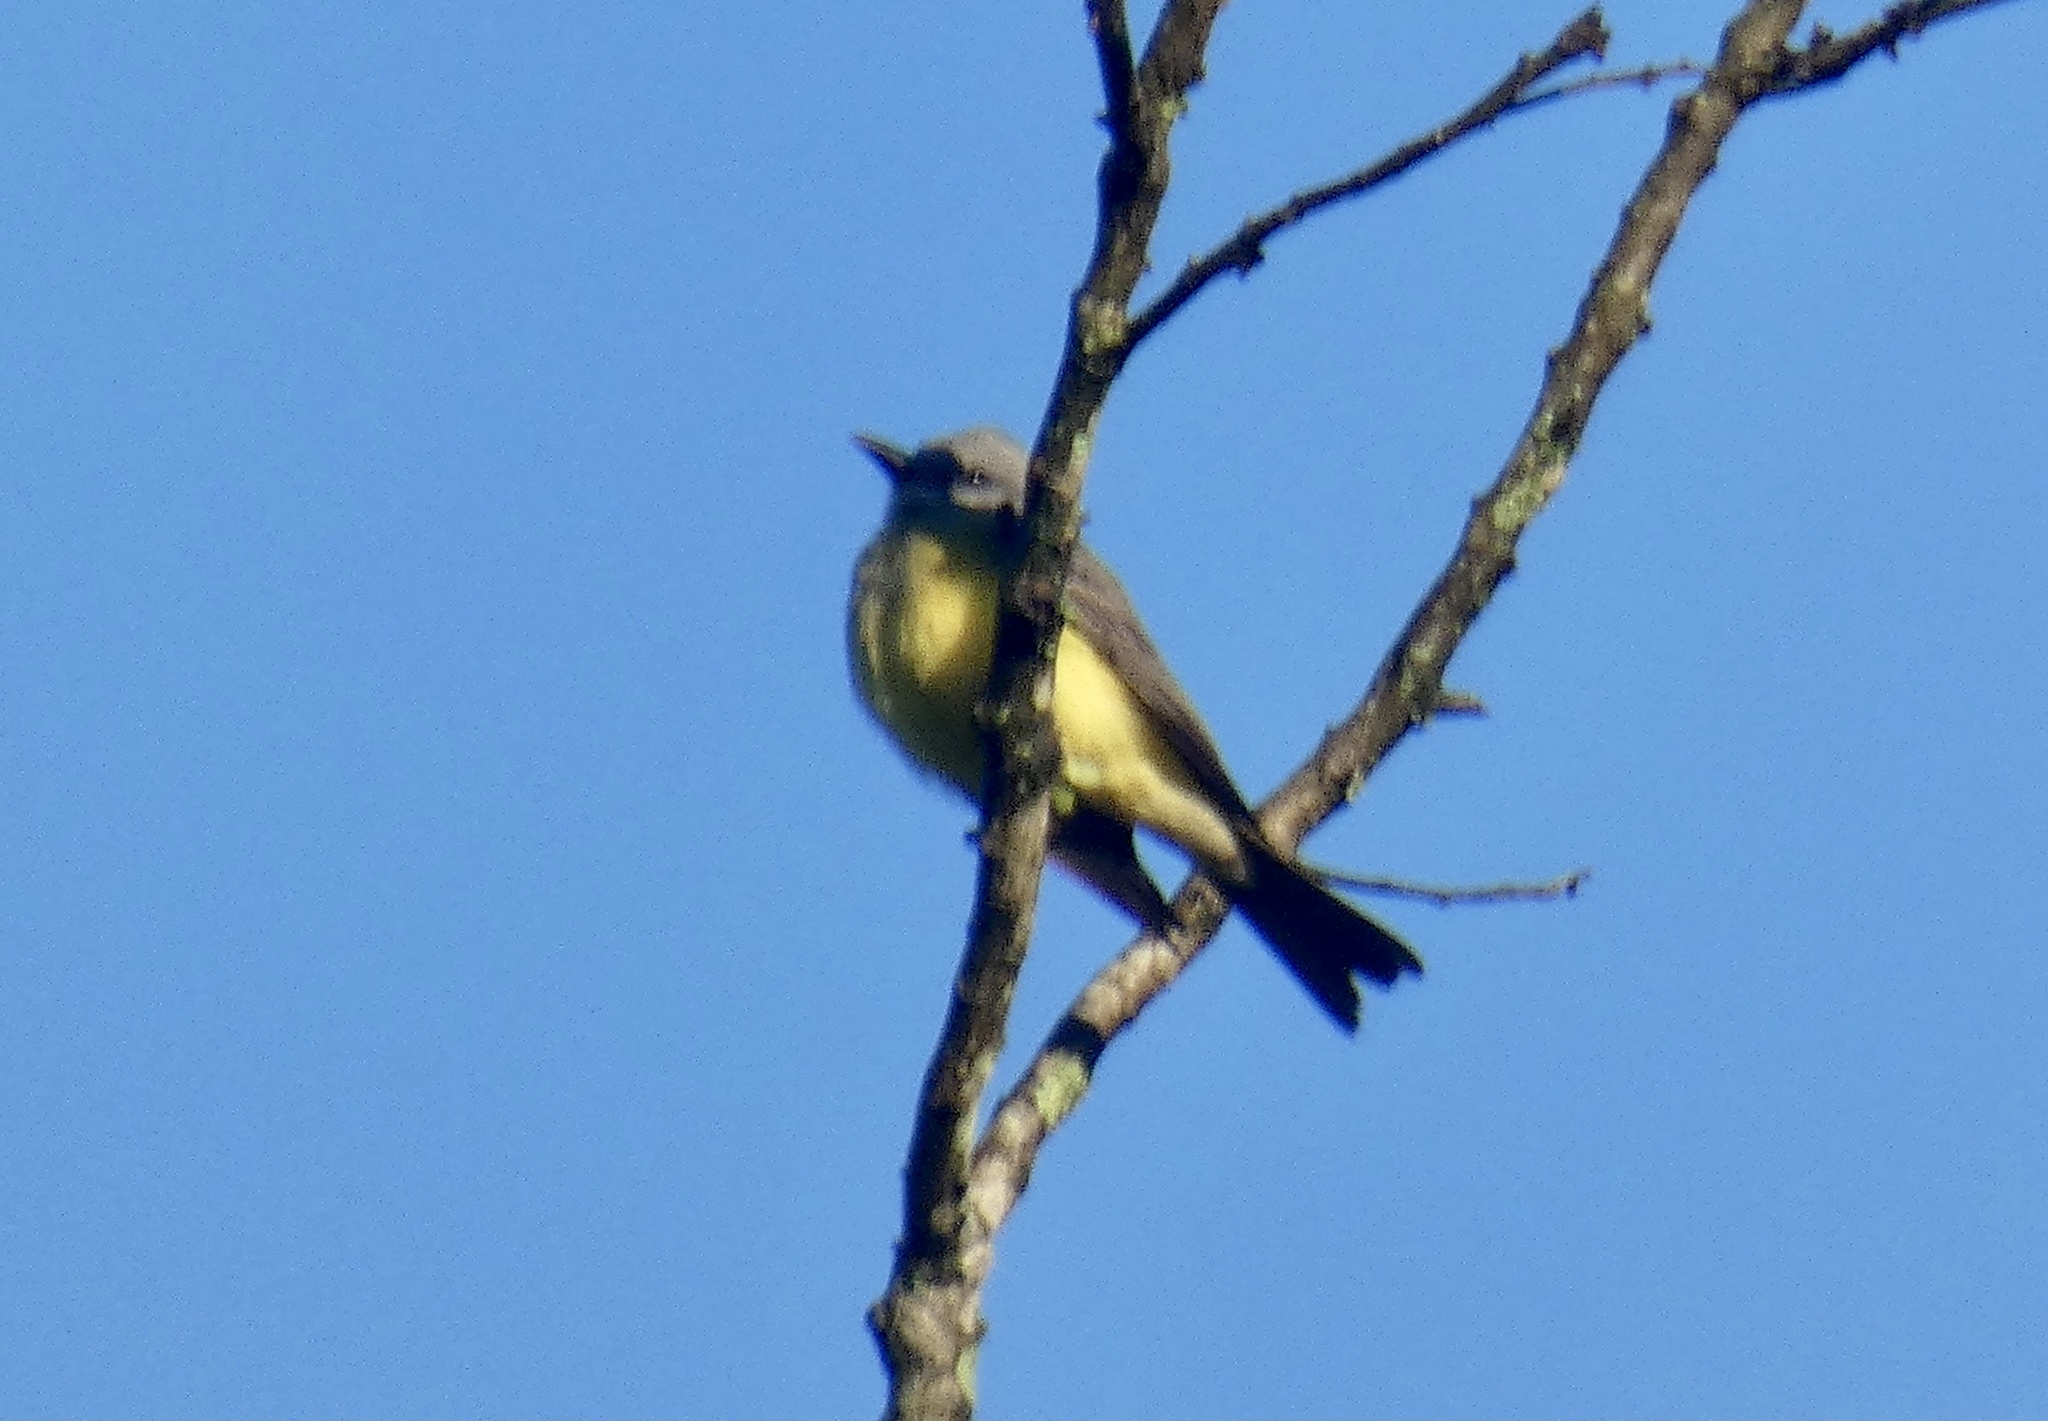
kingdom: Animalia
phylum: Chordata
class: Aves
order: Passeriformes
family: Tyrannidae
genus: Tyrannus
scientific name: Tyrannus melancholicus
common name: Tropical kingbird
